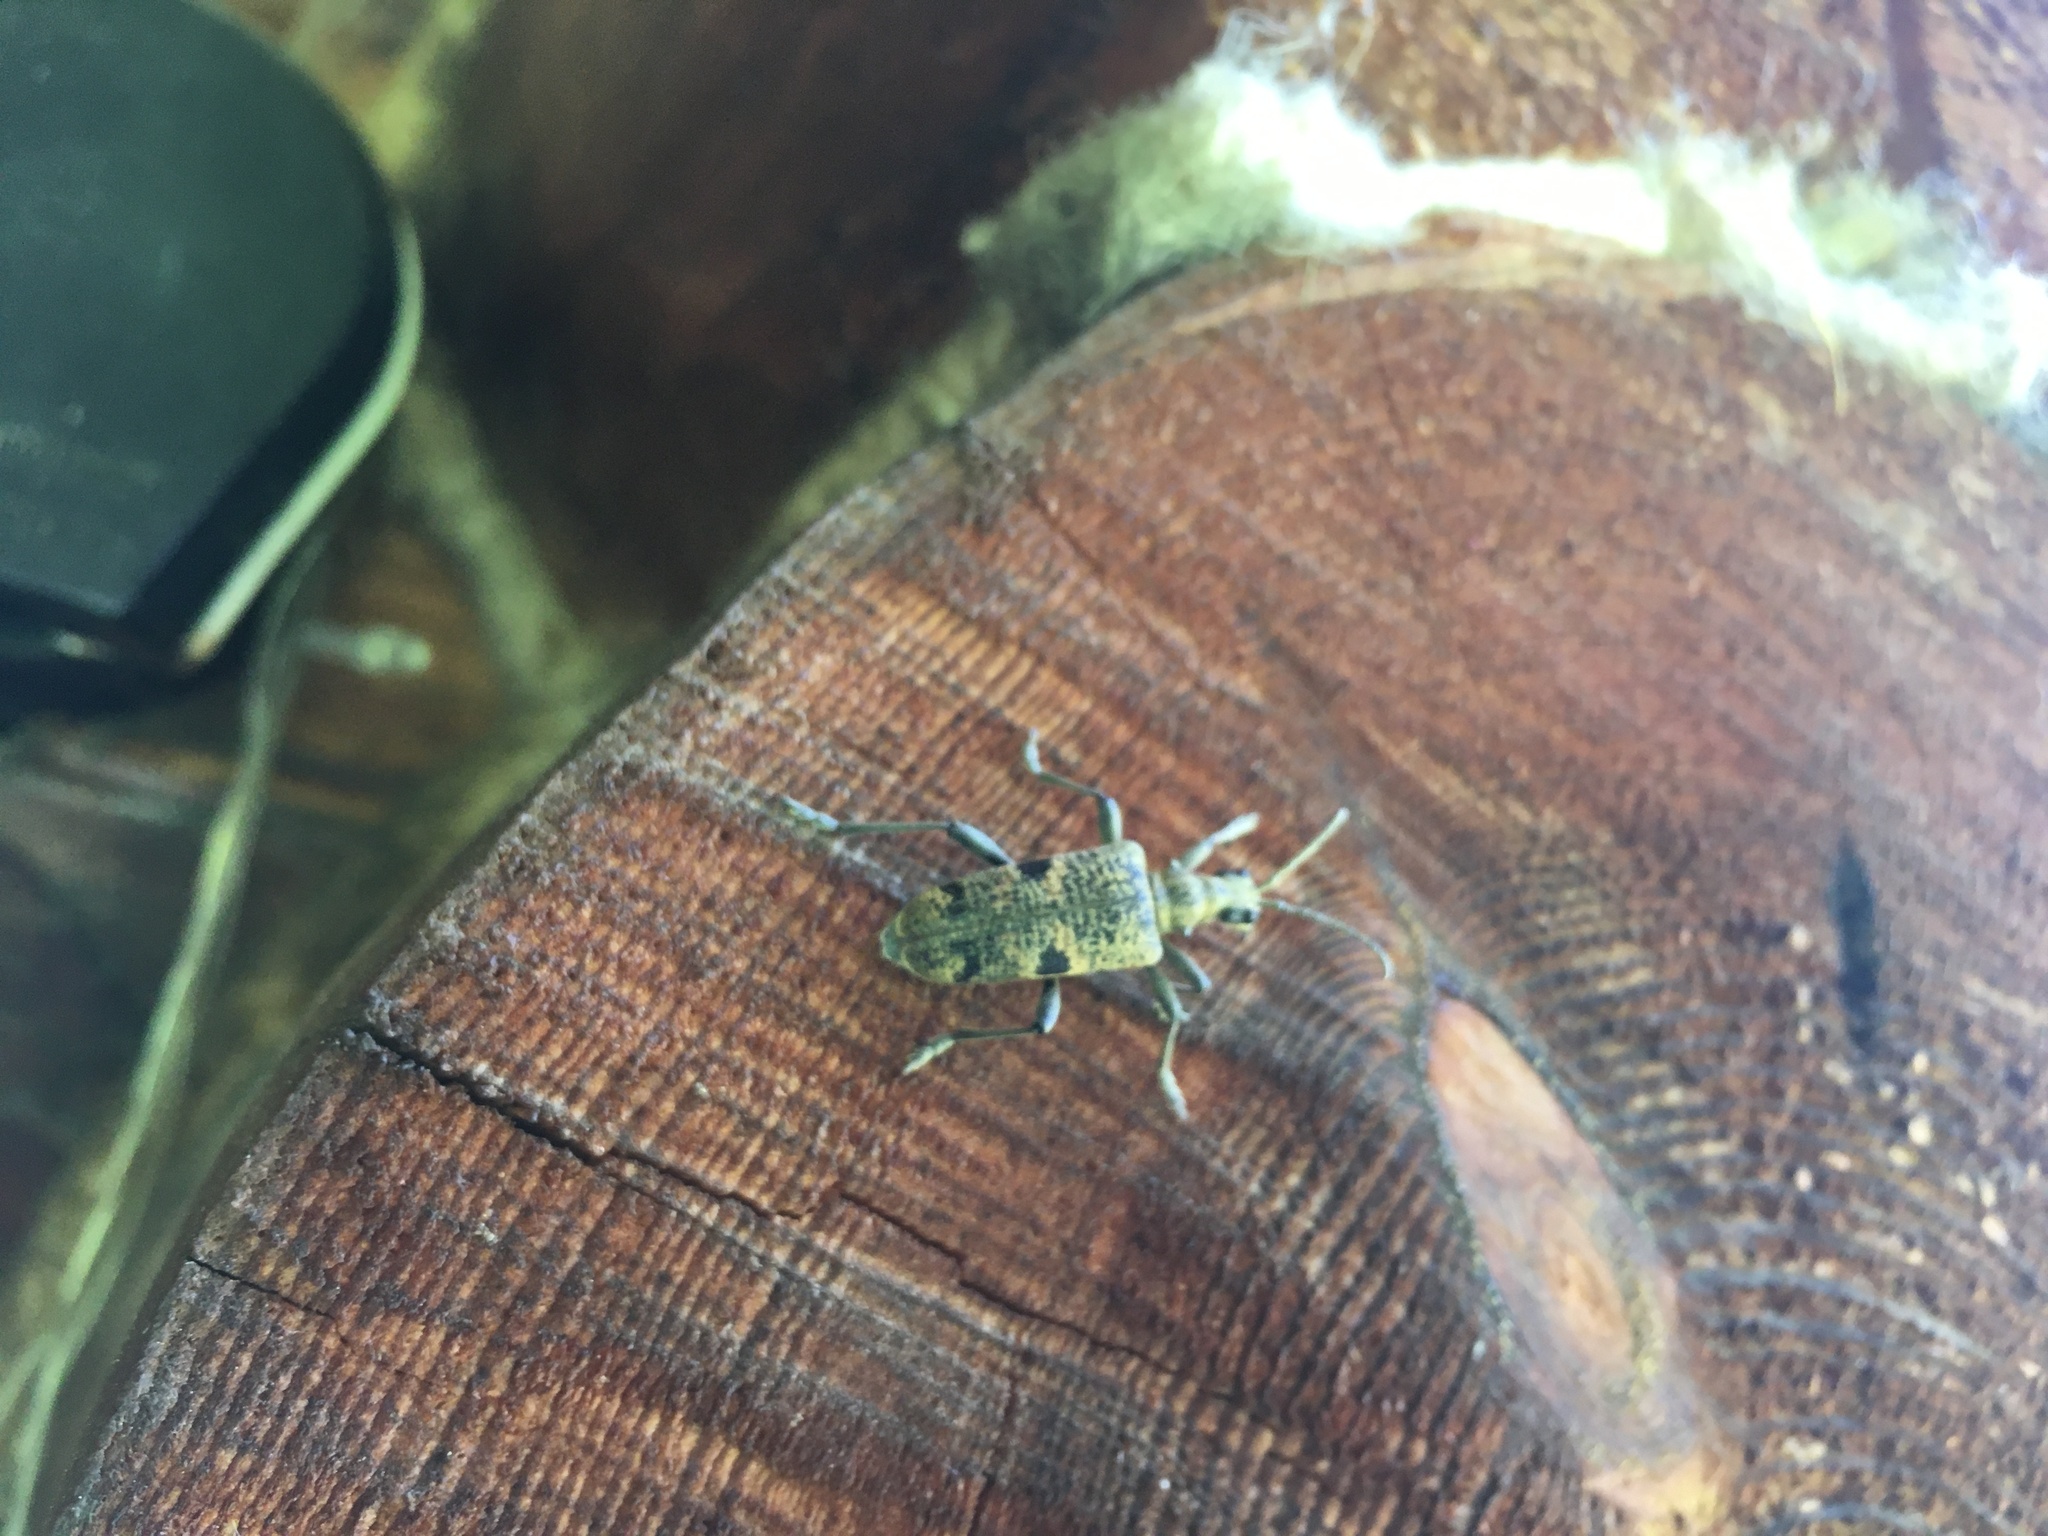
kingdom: Animalia
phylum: Arthropoda
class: Insecta
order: Coleoptera
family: Cerambycidae
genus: Rhagium
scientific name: Rhagium mordax
